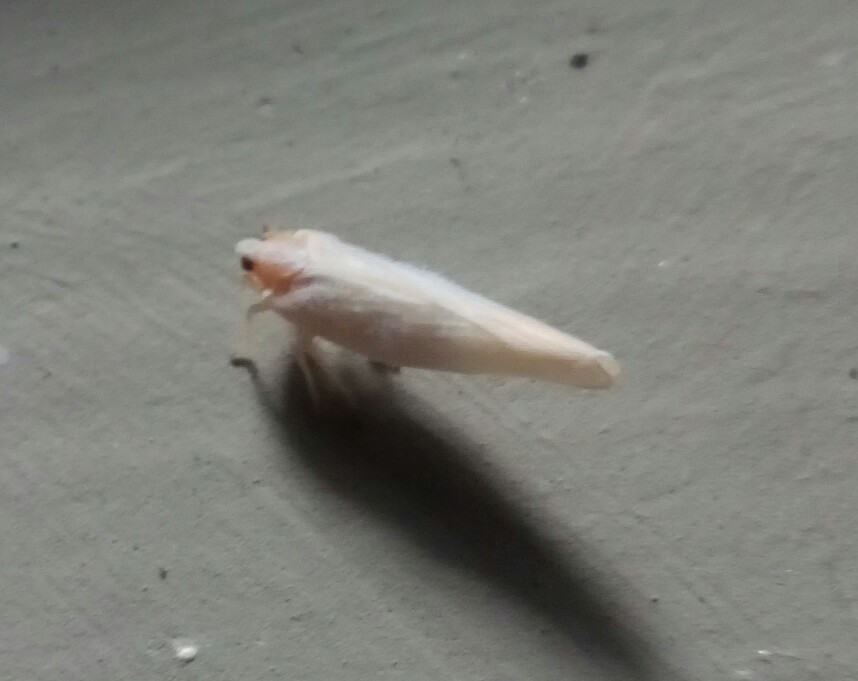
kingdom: Animalia
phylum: Arthropoda
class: Insecta
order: Hemiptera
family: Derbidae
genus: Neocenchrea
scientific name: Neocenchrea heidemanni
